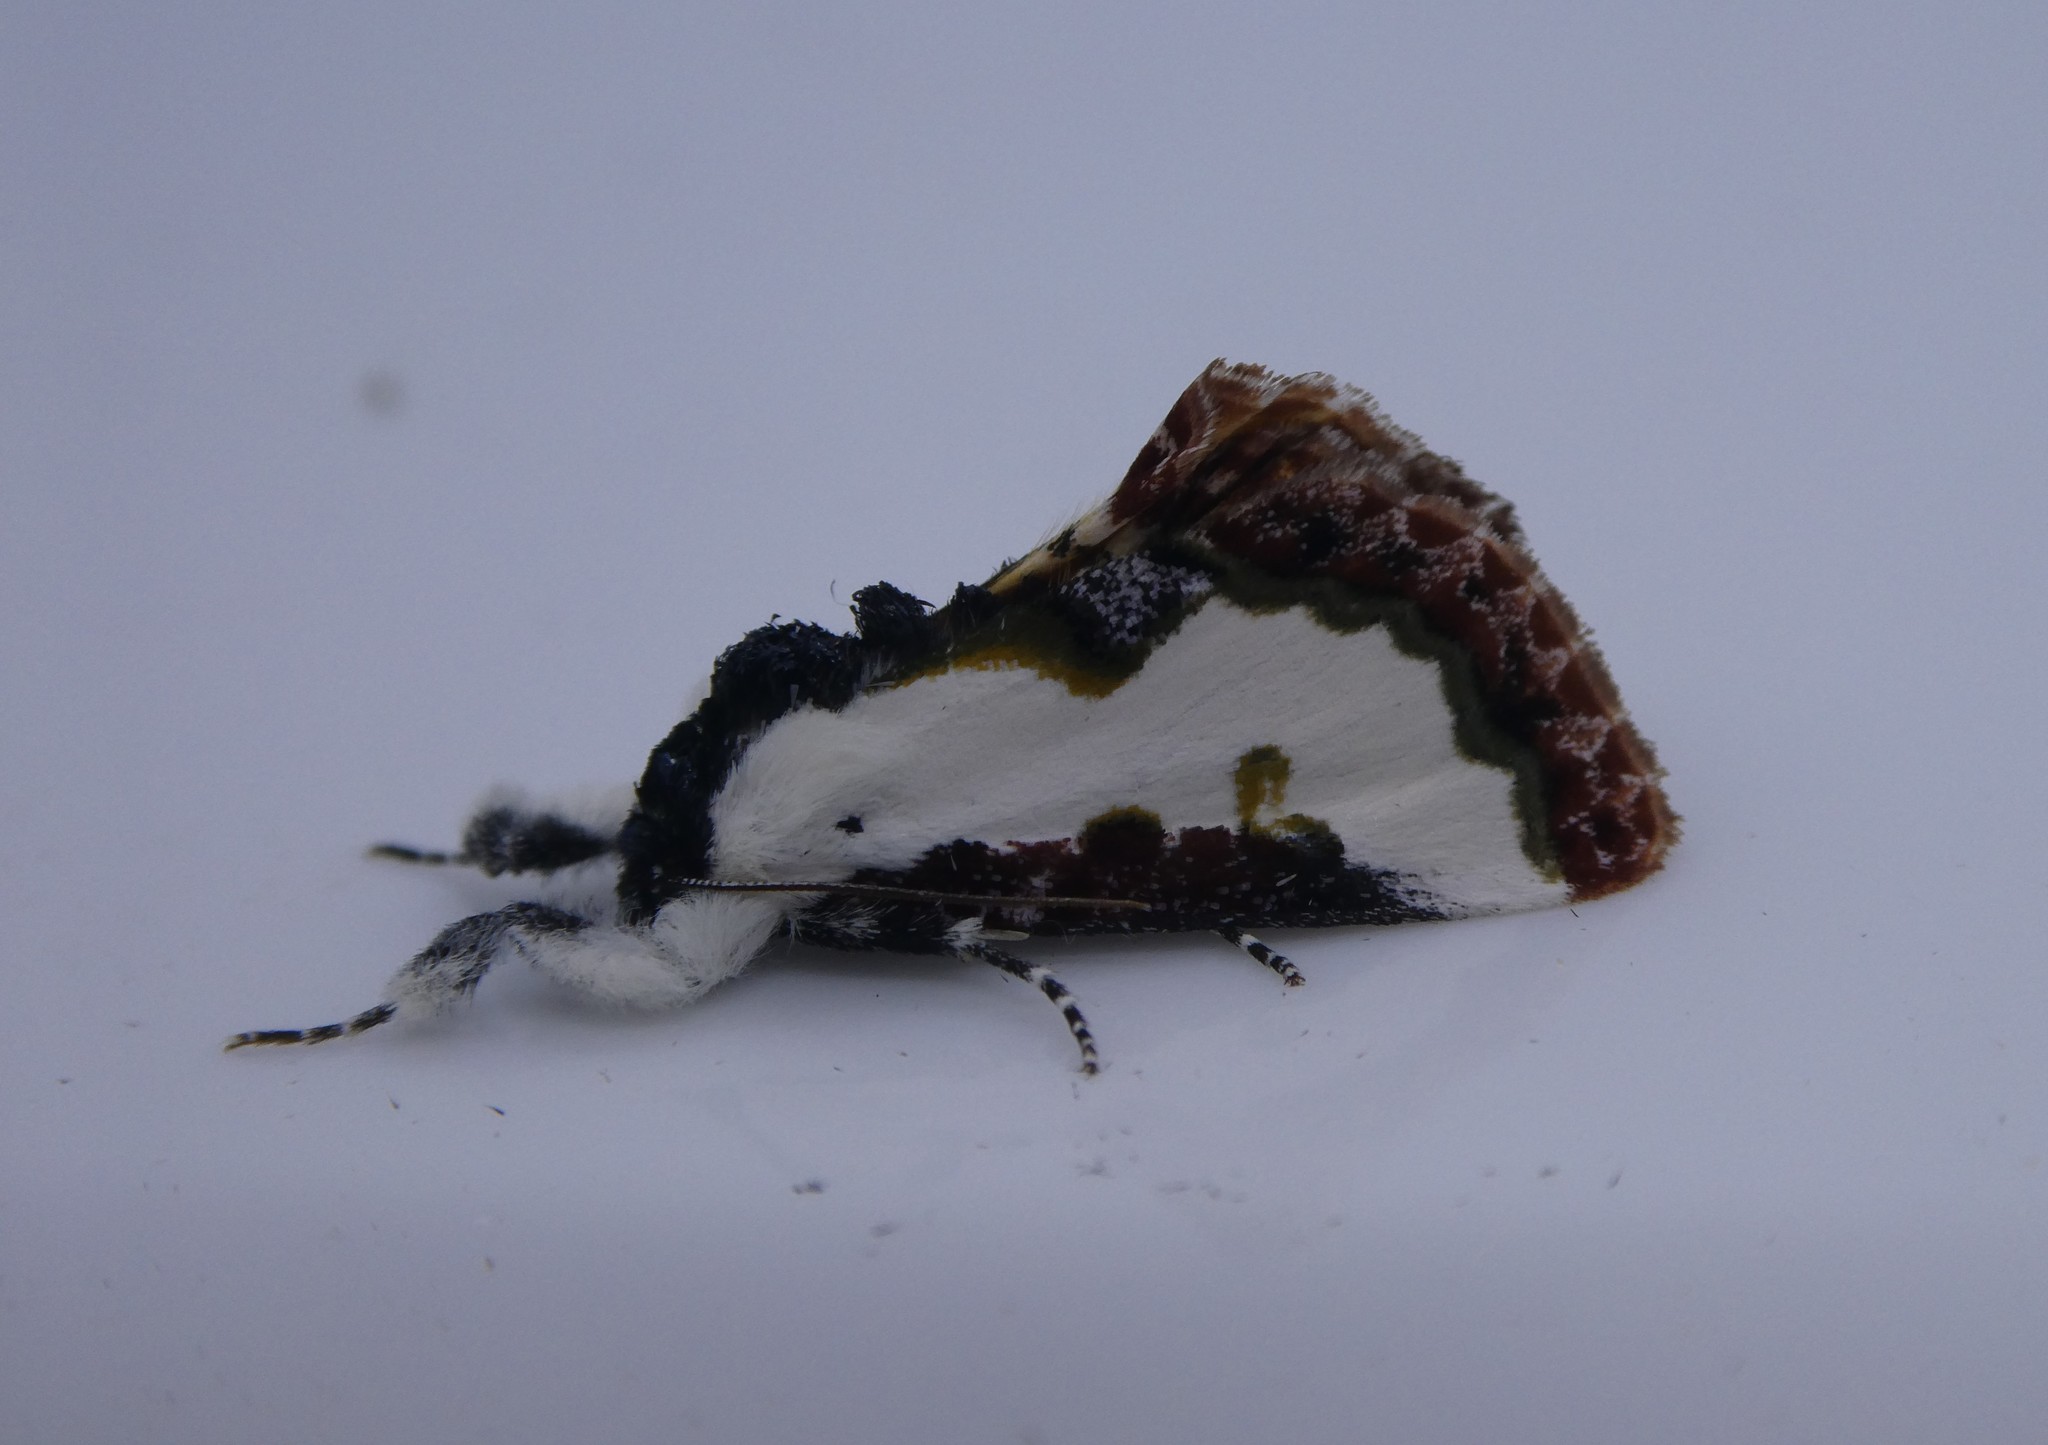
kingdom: Animalia
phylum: Arthropoda
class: Insecta
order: Lepidoptera
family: Noctuidae
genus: Eudryas
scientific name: Eudryas unio
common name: Pearly wood-nymph
